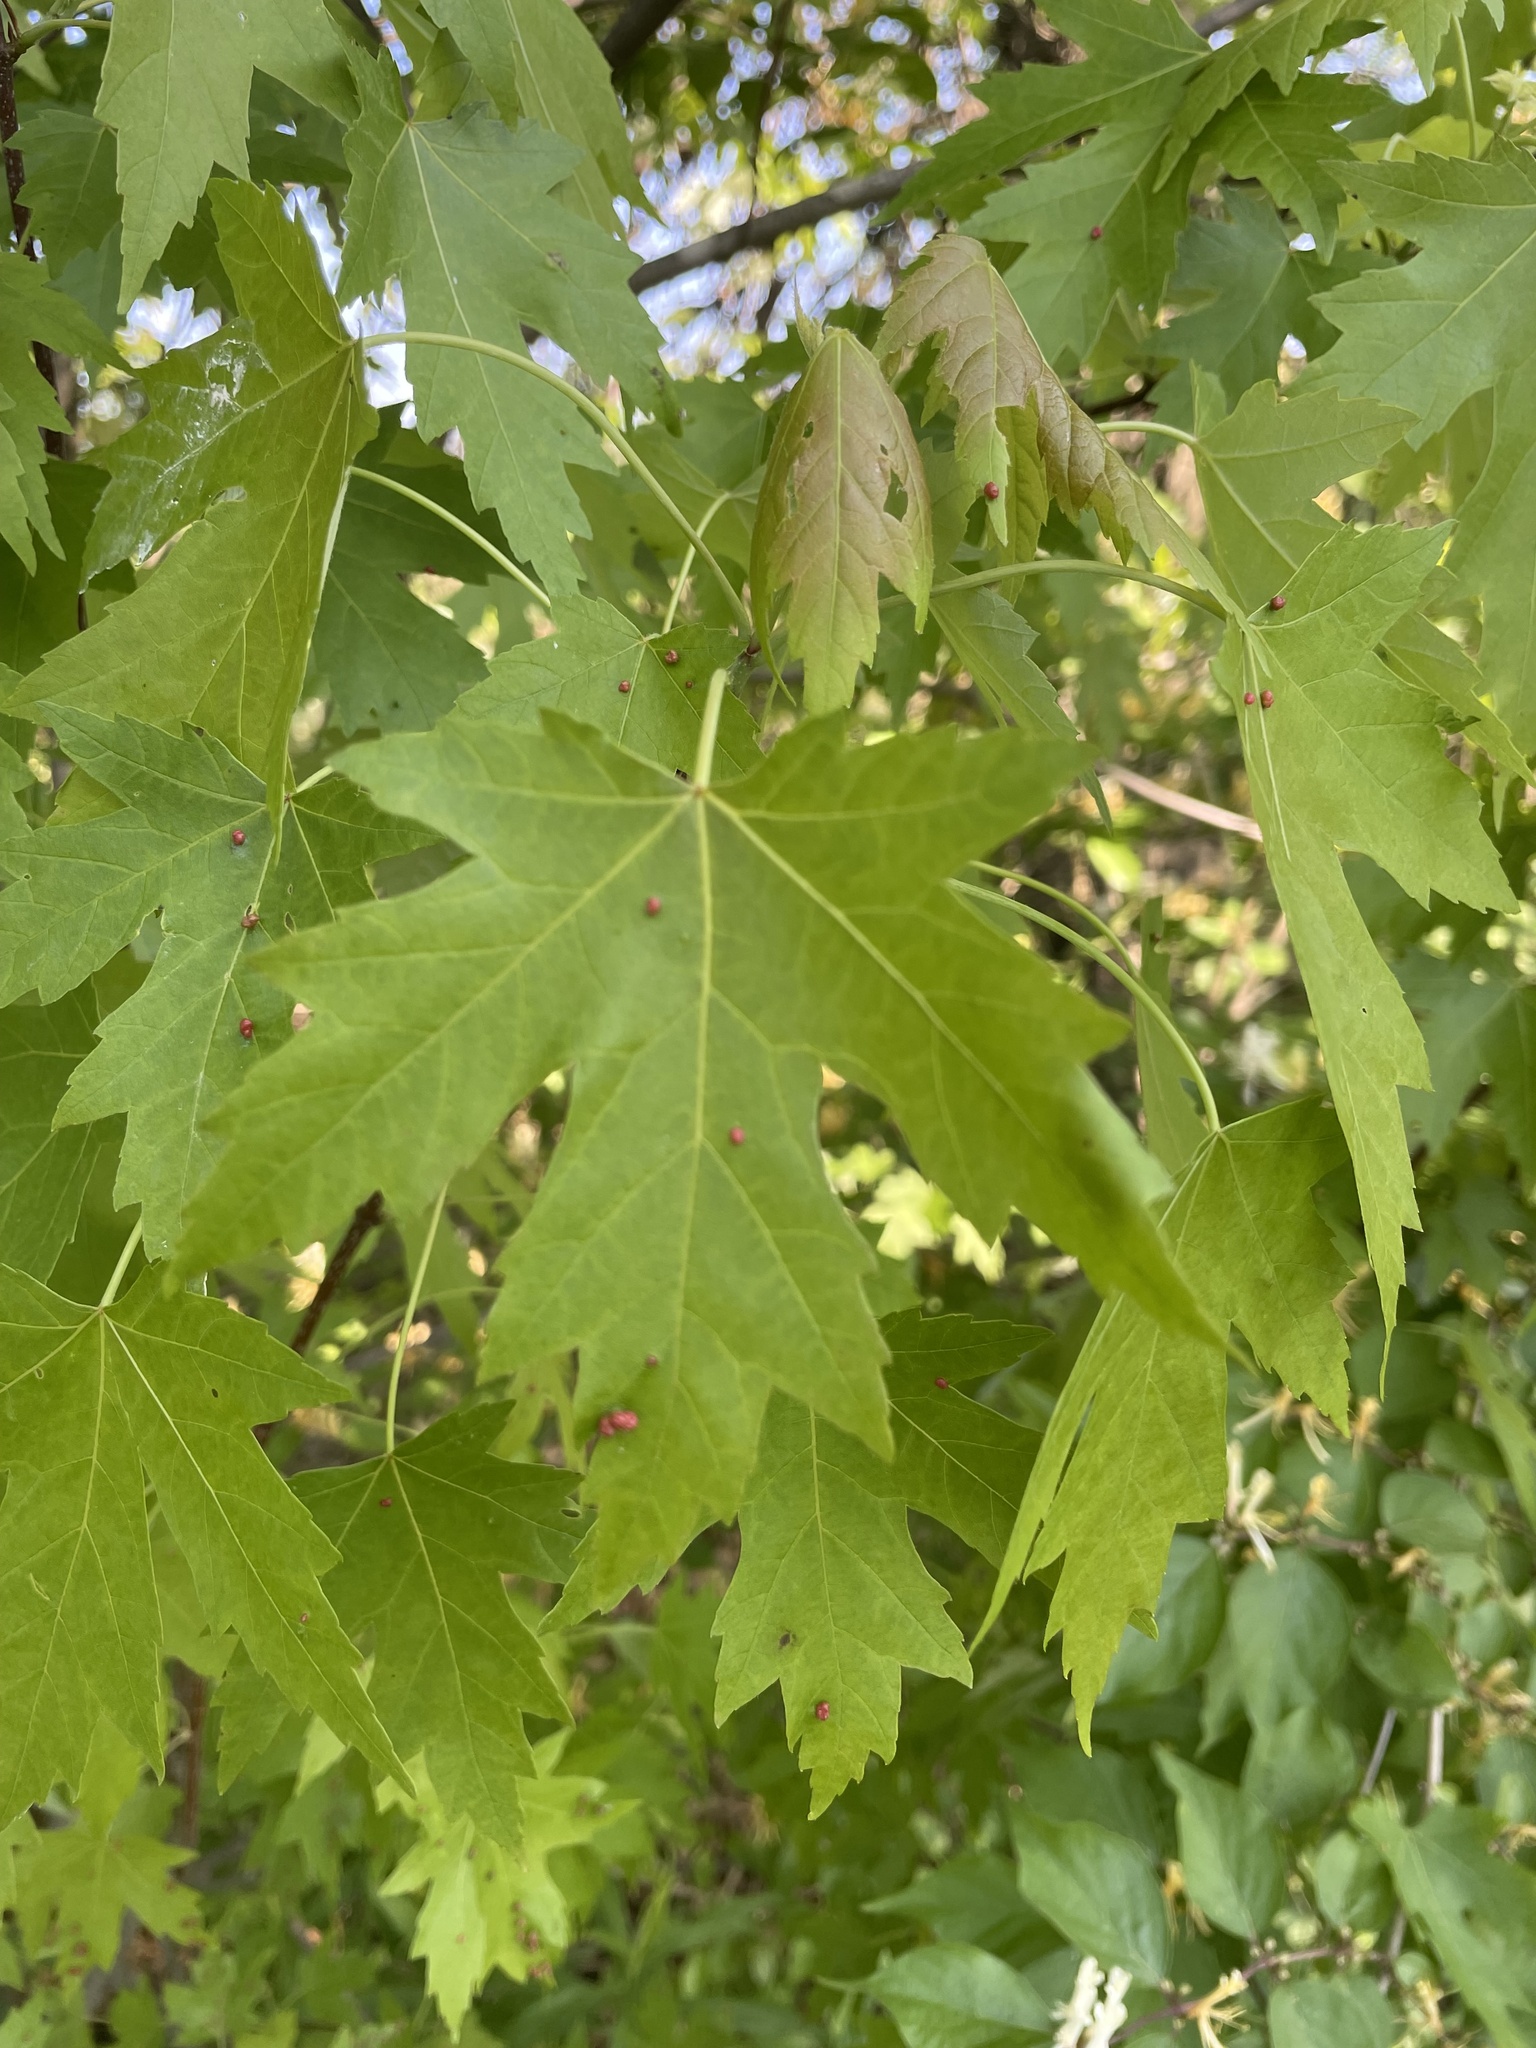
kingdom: Plantae
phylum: Tracheophyta
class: Magnoliopsida
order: Sapindales
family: Sapindaceae
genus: Acer
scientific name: Acer saccharinum
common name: Silver maple
